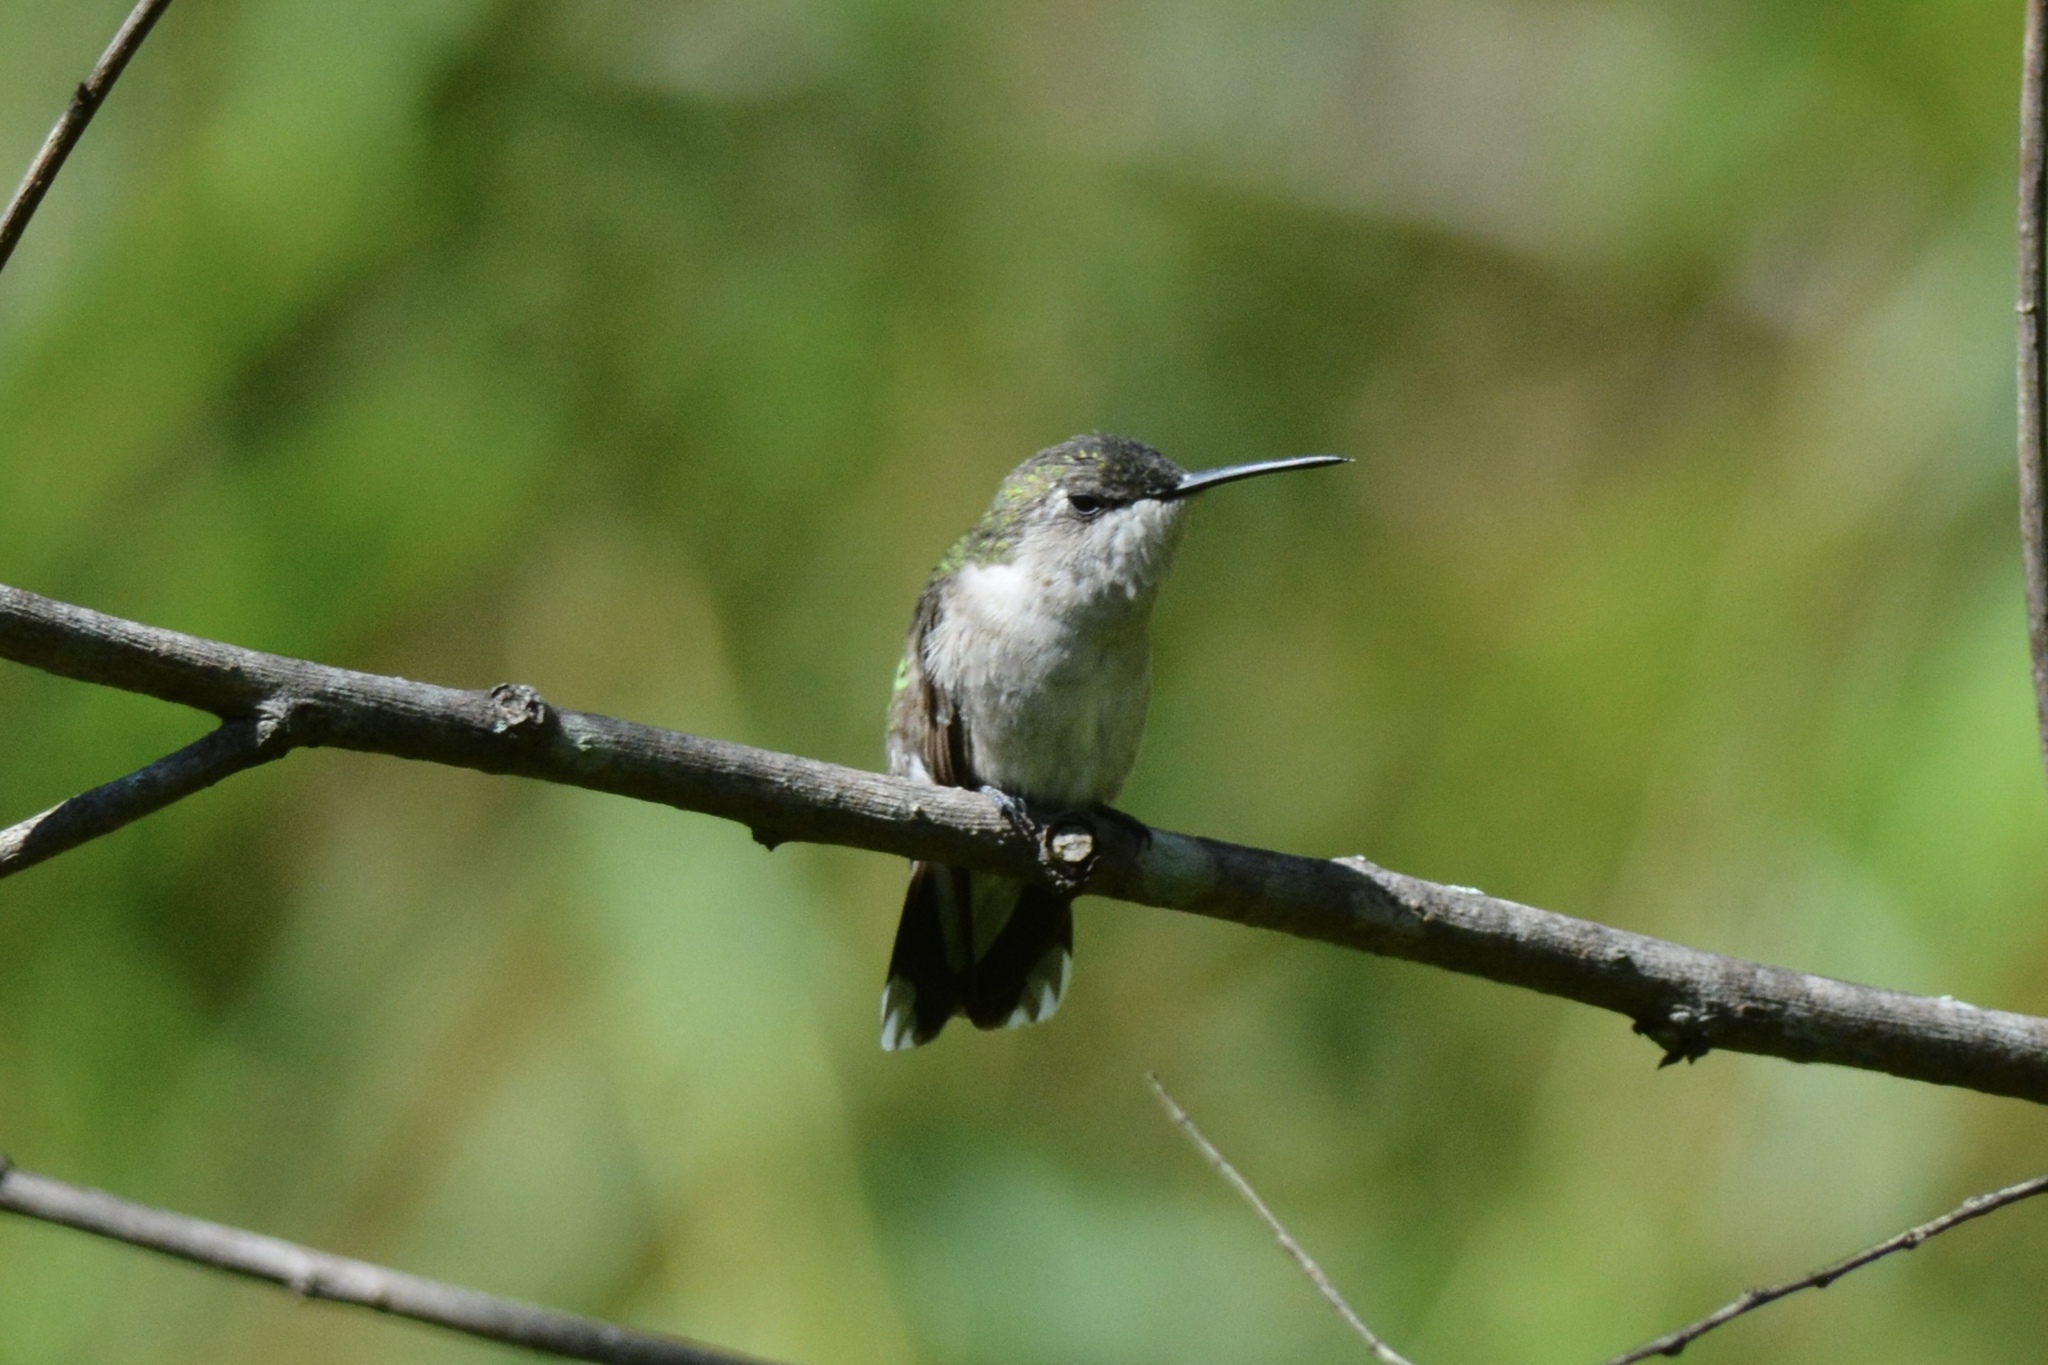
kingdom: Animalia
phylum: Chordata
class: Aves
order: Apodiformes
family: Trochilidae
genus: Archilochus
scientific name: Archilochus colubris
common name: Ruby-throated hummingbird
